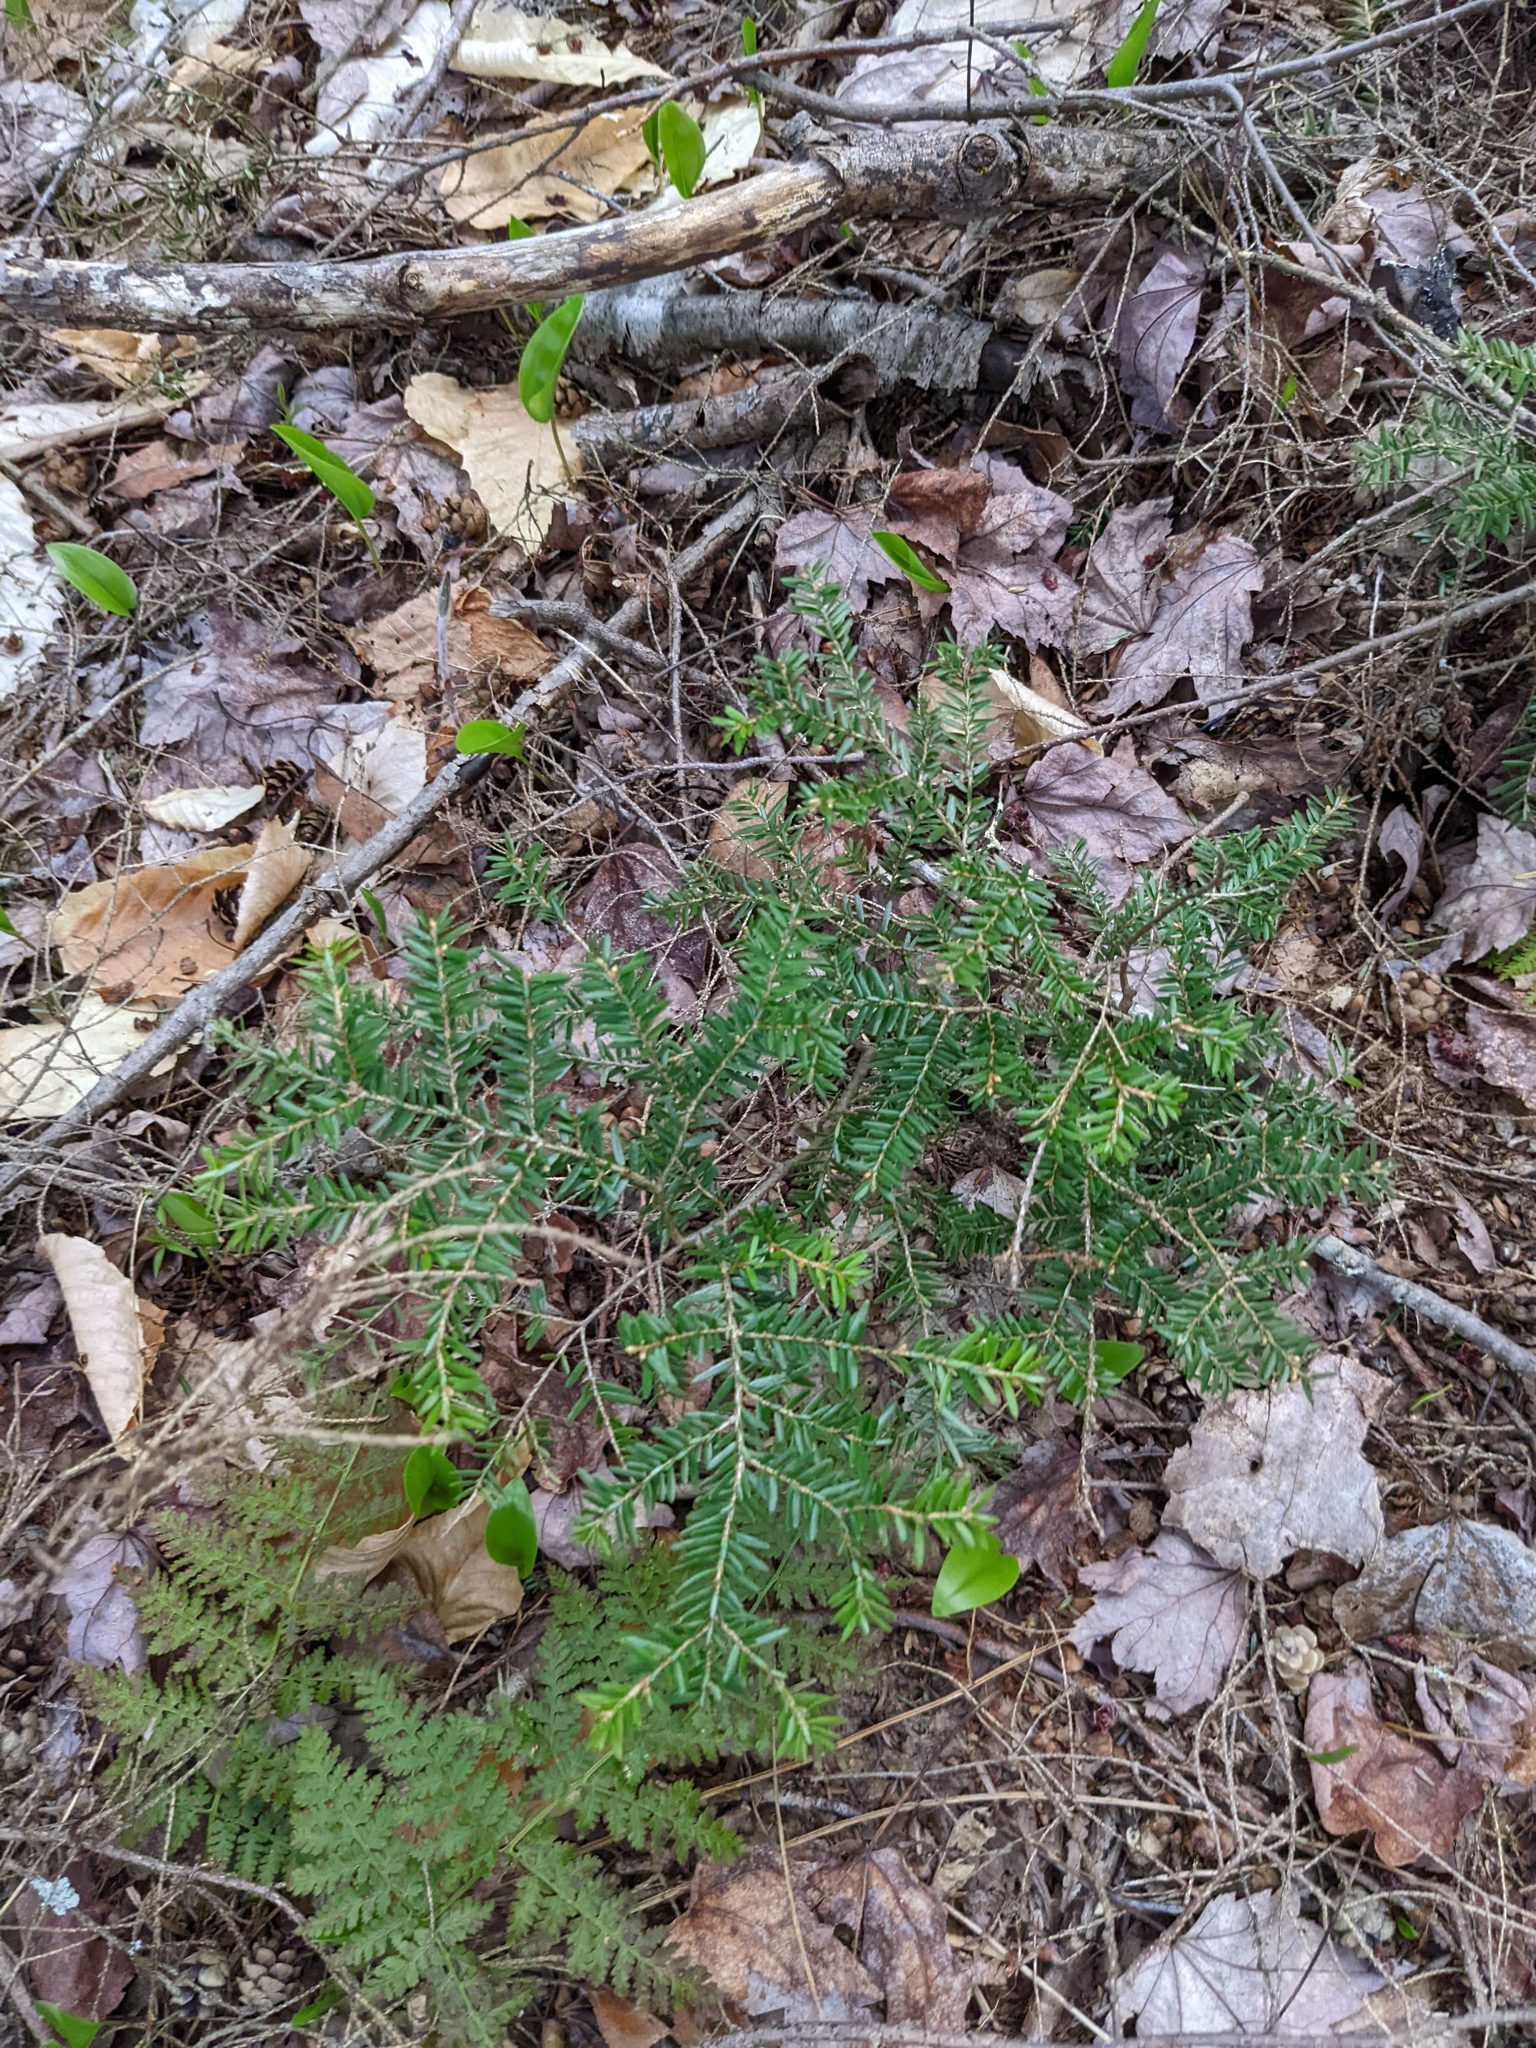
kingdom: Plantae
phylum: Tracheophyta
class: Pinopsida
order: Pinales
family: Pinaceae
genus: Tsuga
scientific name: Tsuga canadensis
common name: Eastern hemlock
